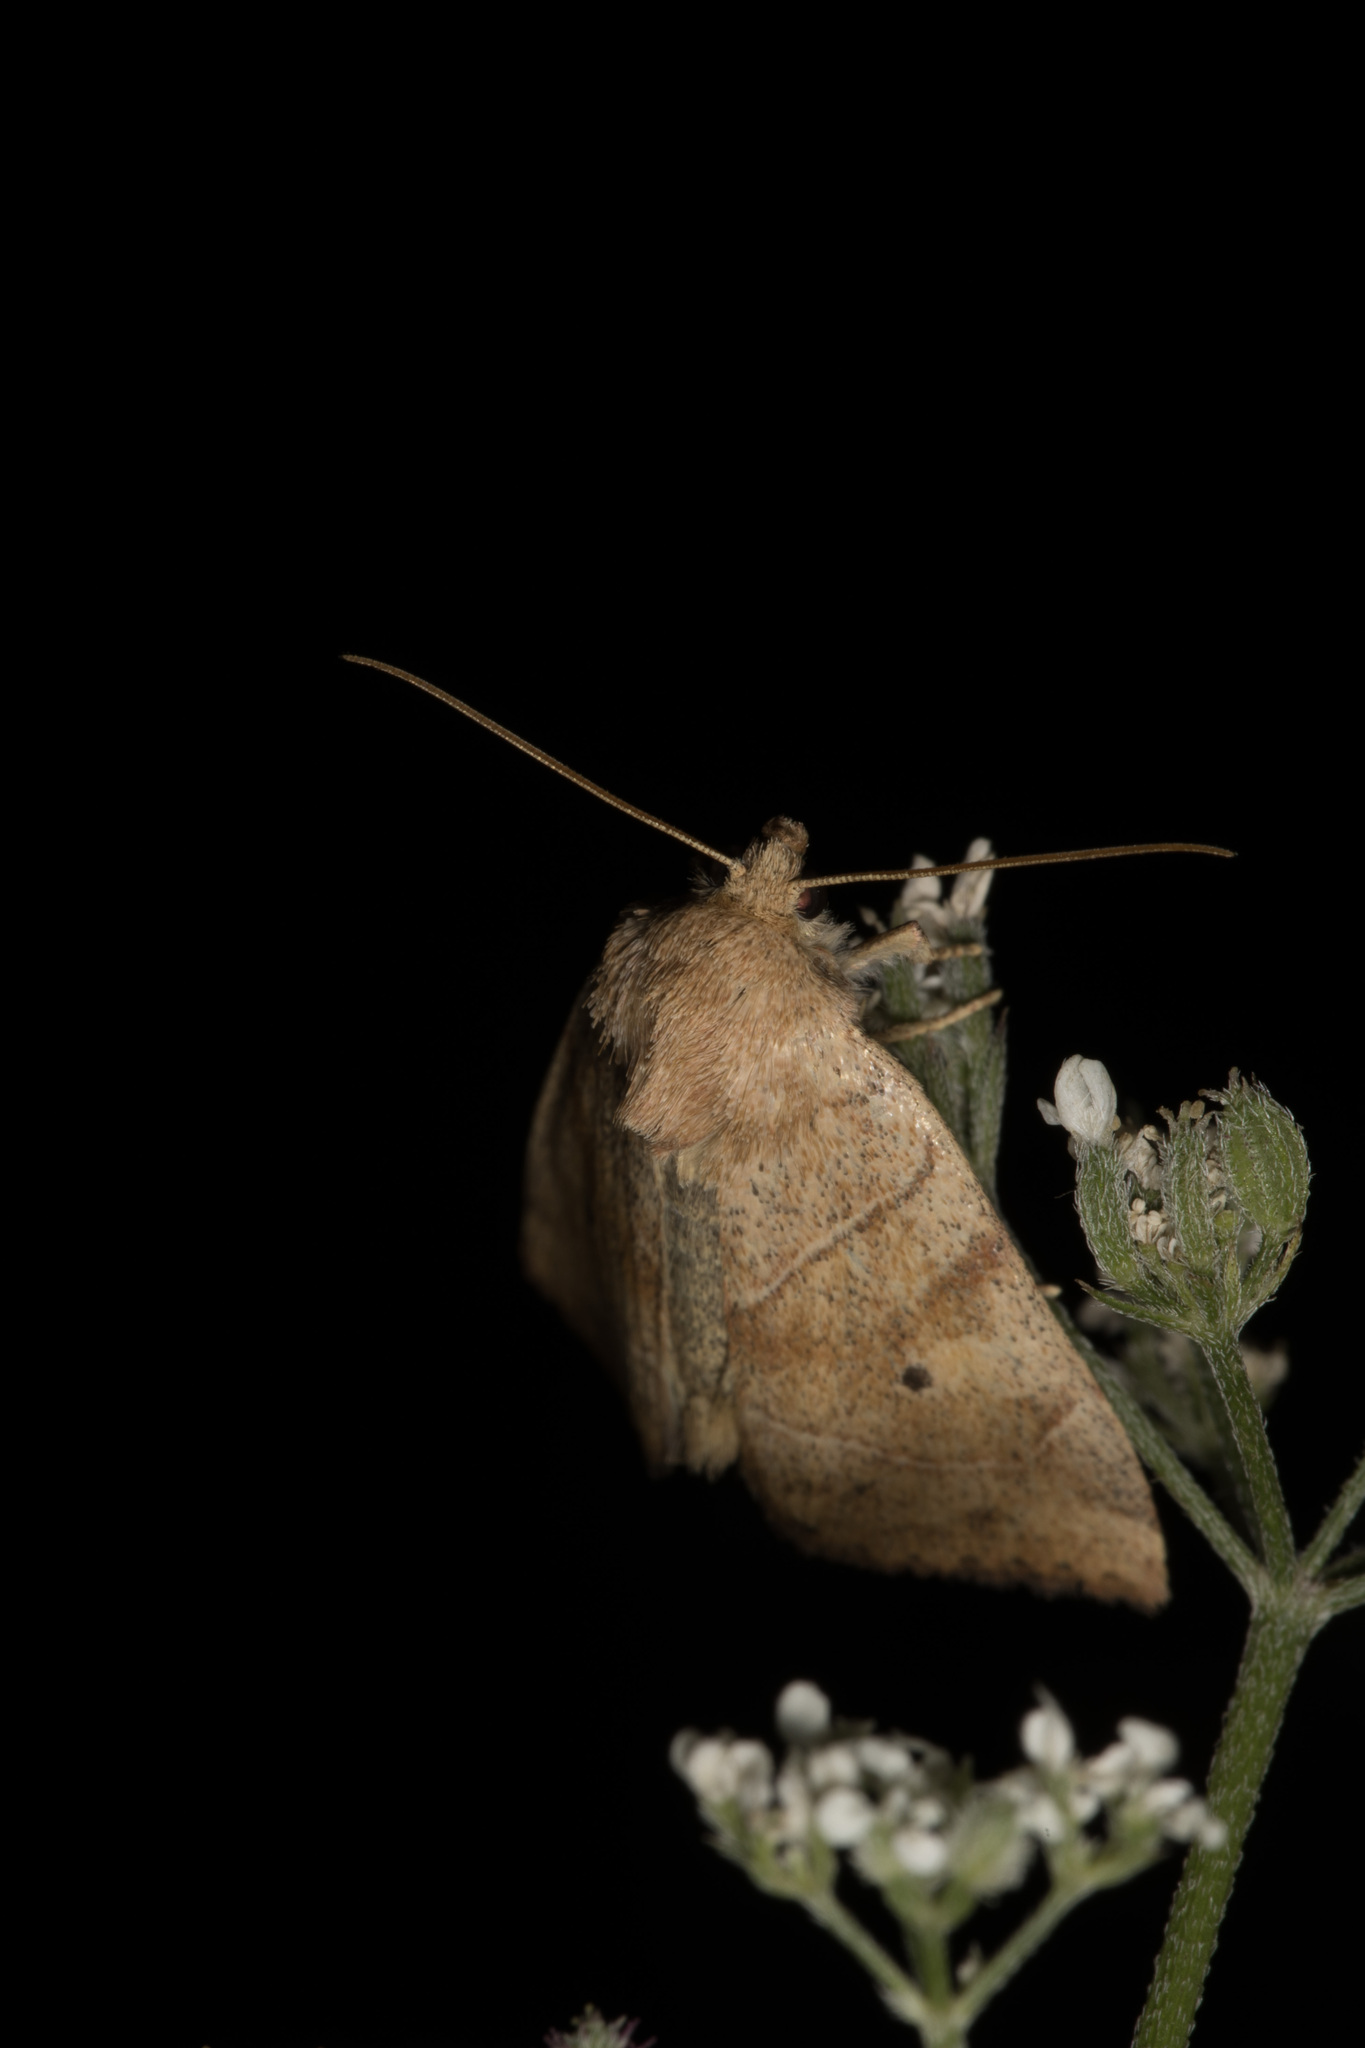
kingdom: Animalia
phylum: Arthropoda
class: Insecta
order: Lepidoptera
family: Noctuidae
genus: Cosmia
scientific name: Cosmia trapezina
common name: Dun-bar
